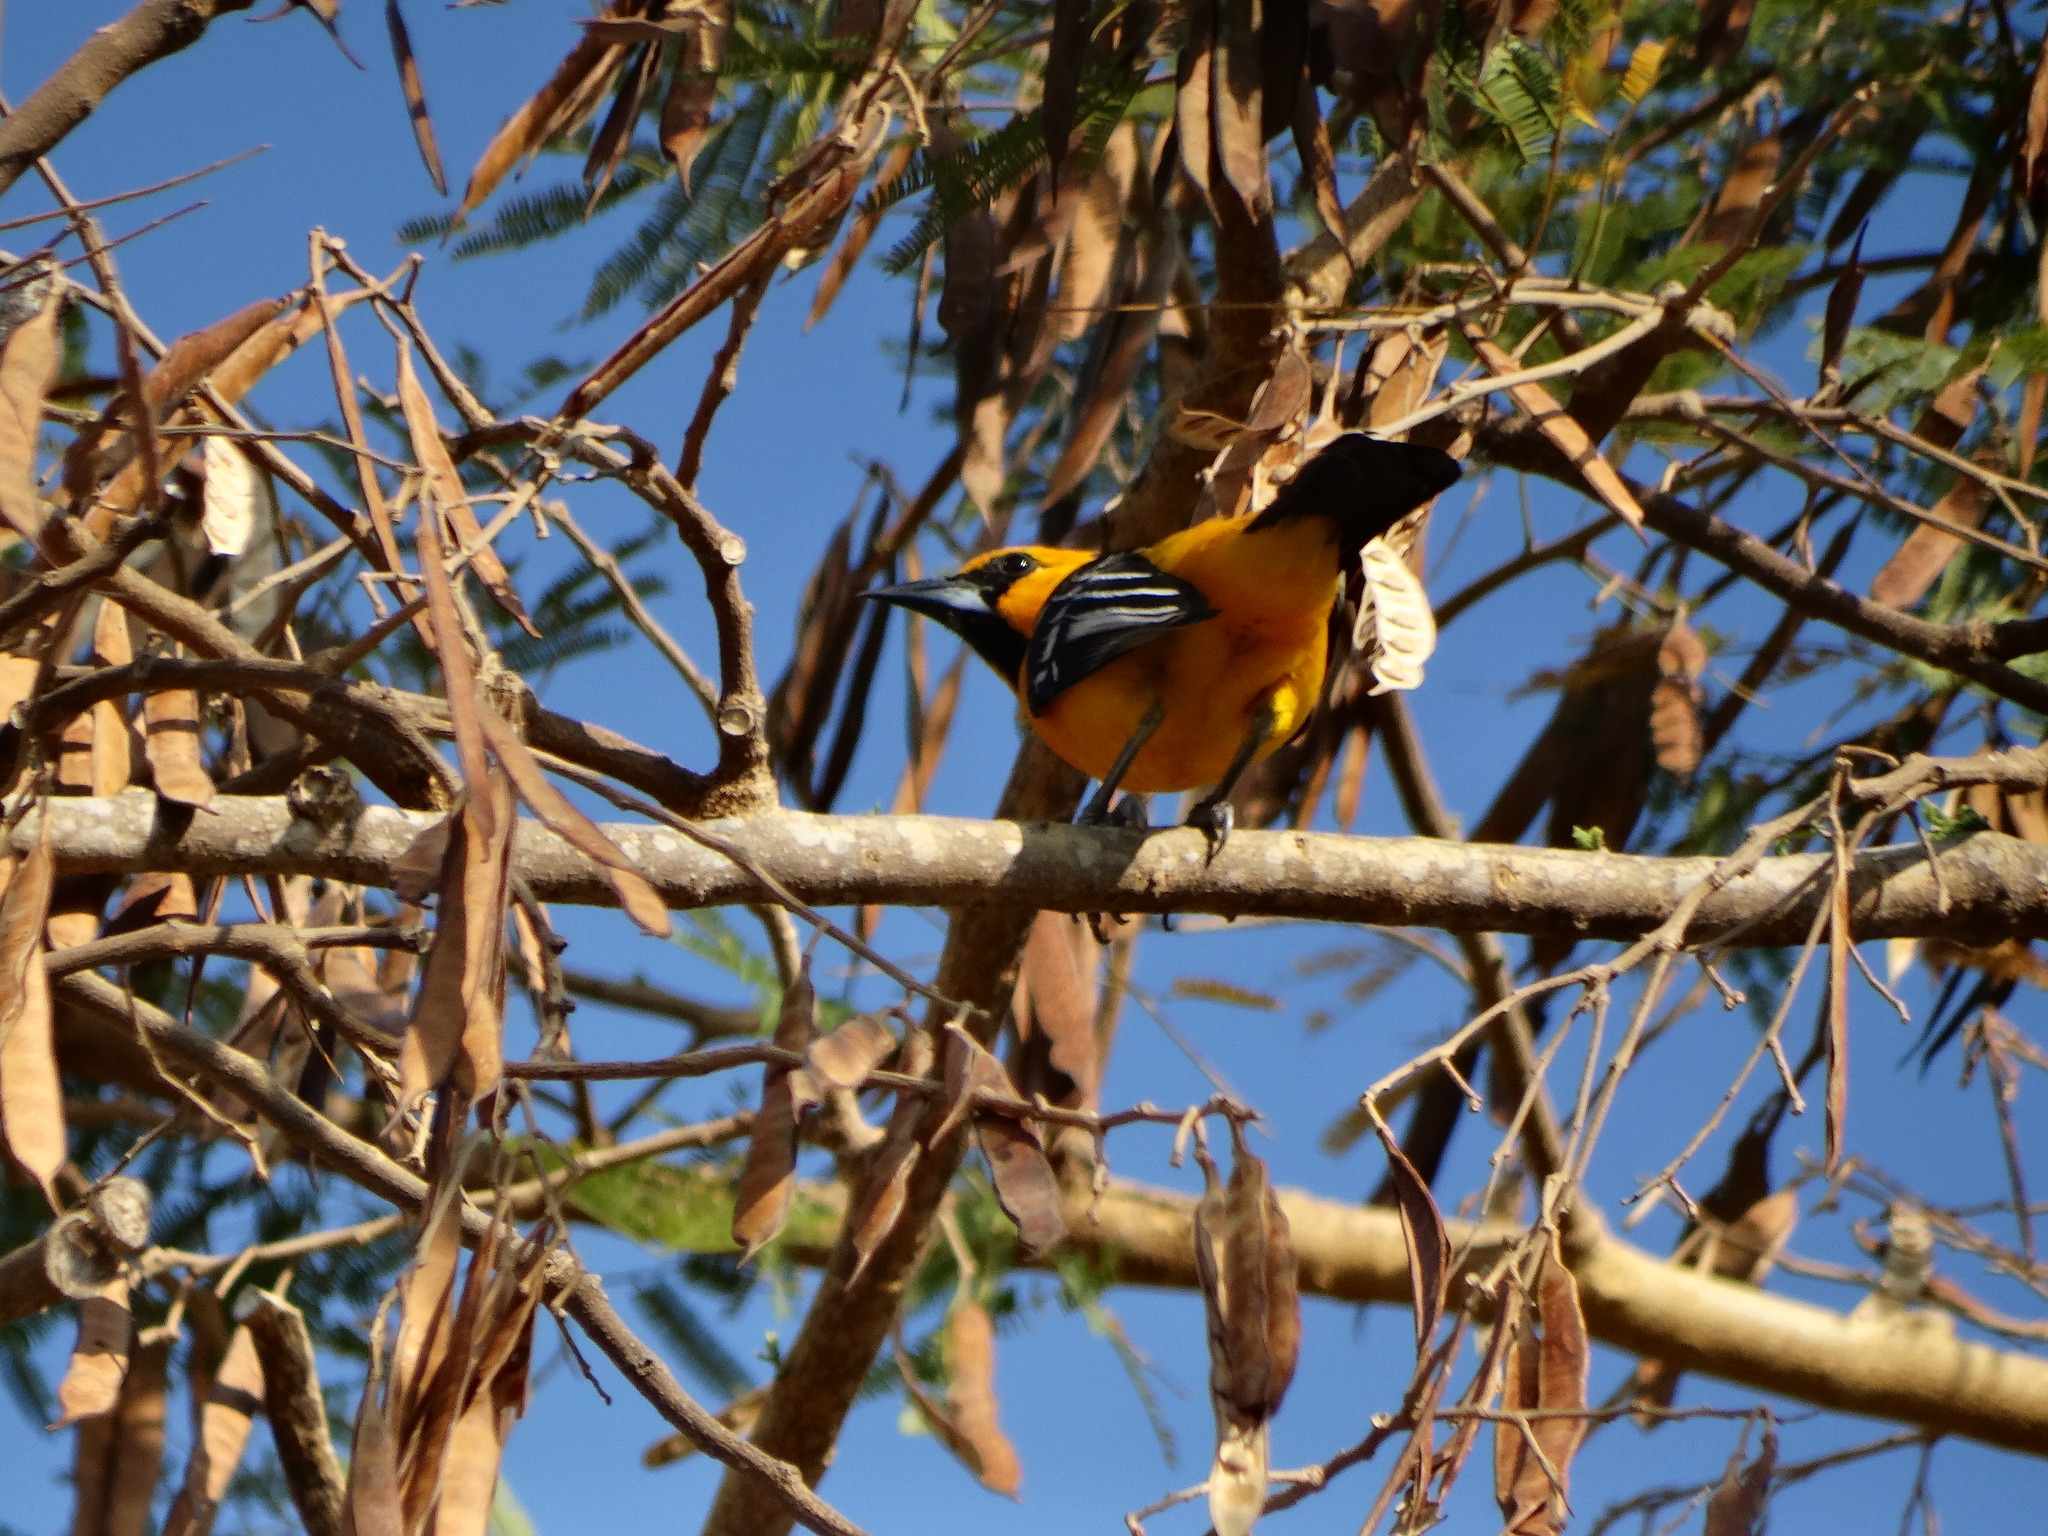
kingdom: Animalia
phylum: Chordata
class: Aves
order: Passeriformes
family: Icteridae
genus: Icterus
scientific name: Icterus gularis
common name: Altamira oriole
